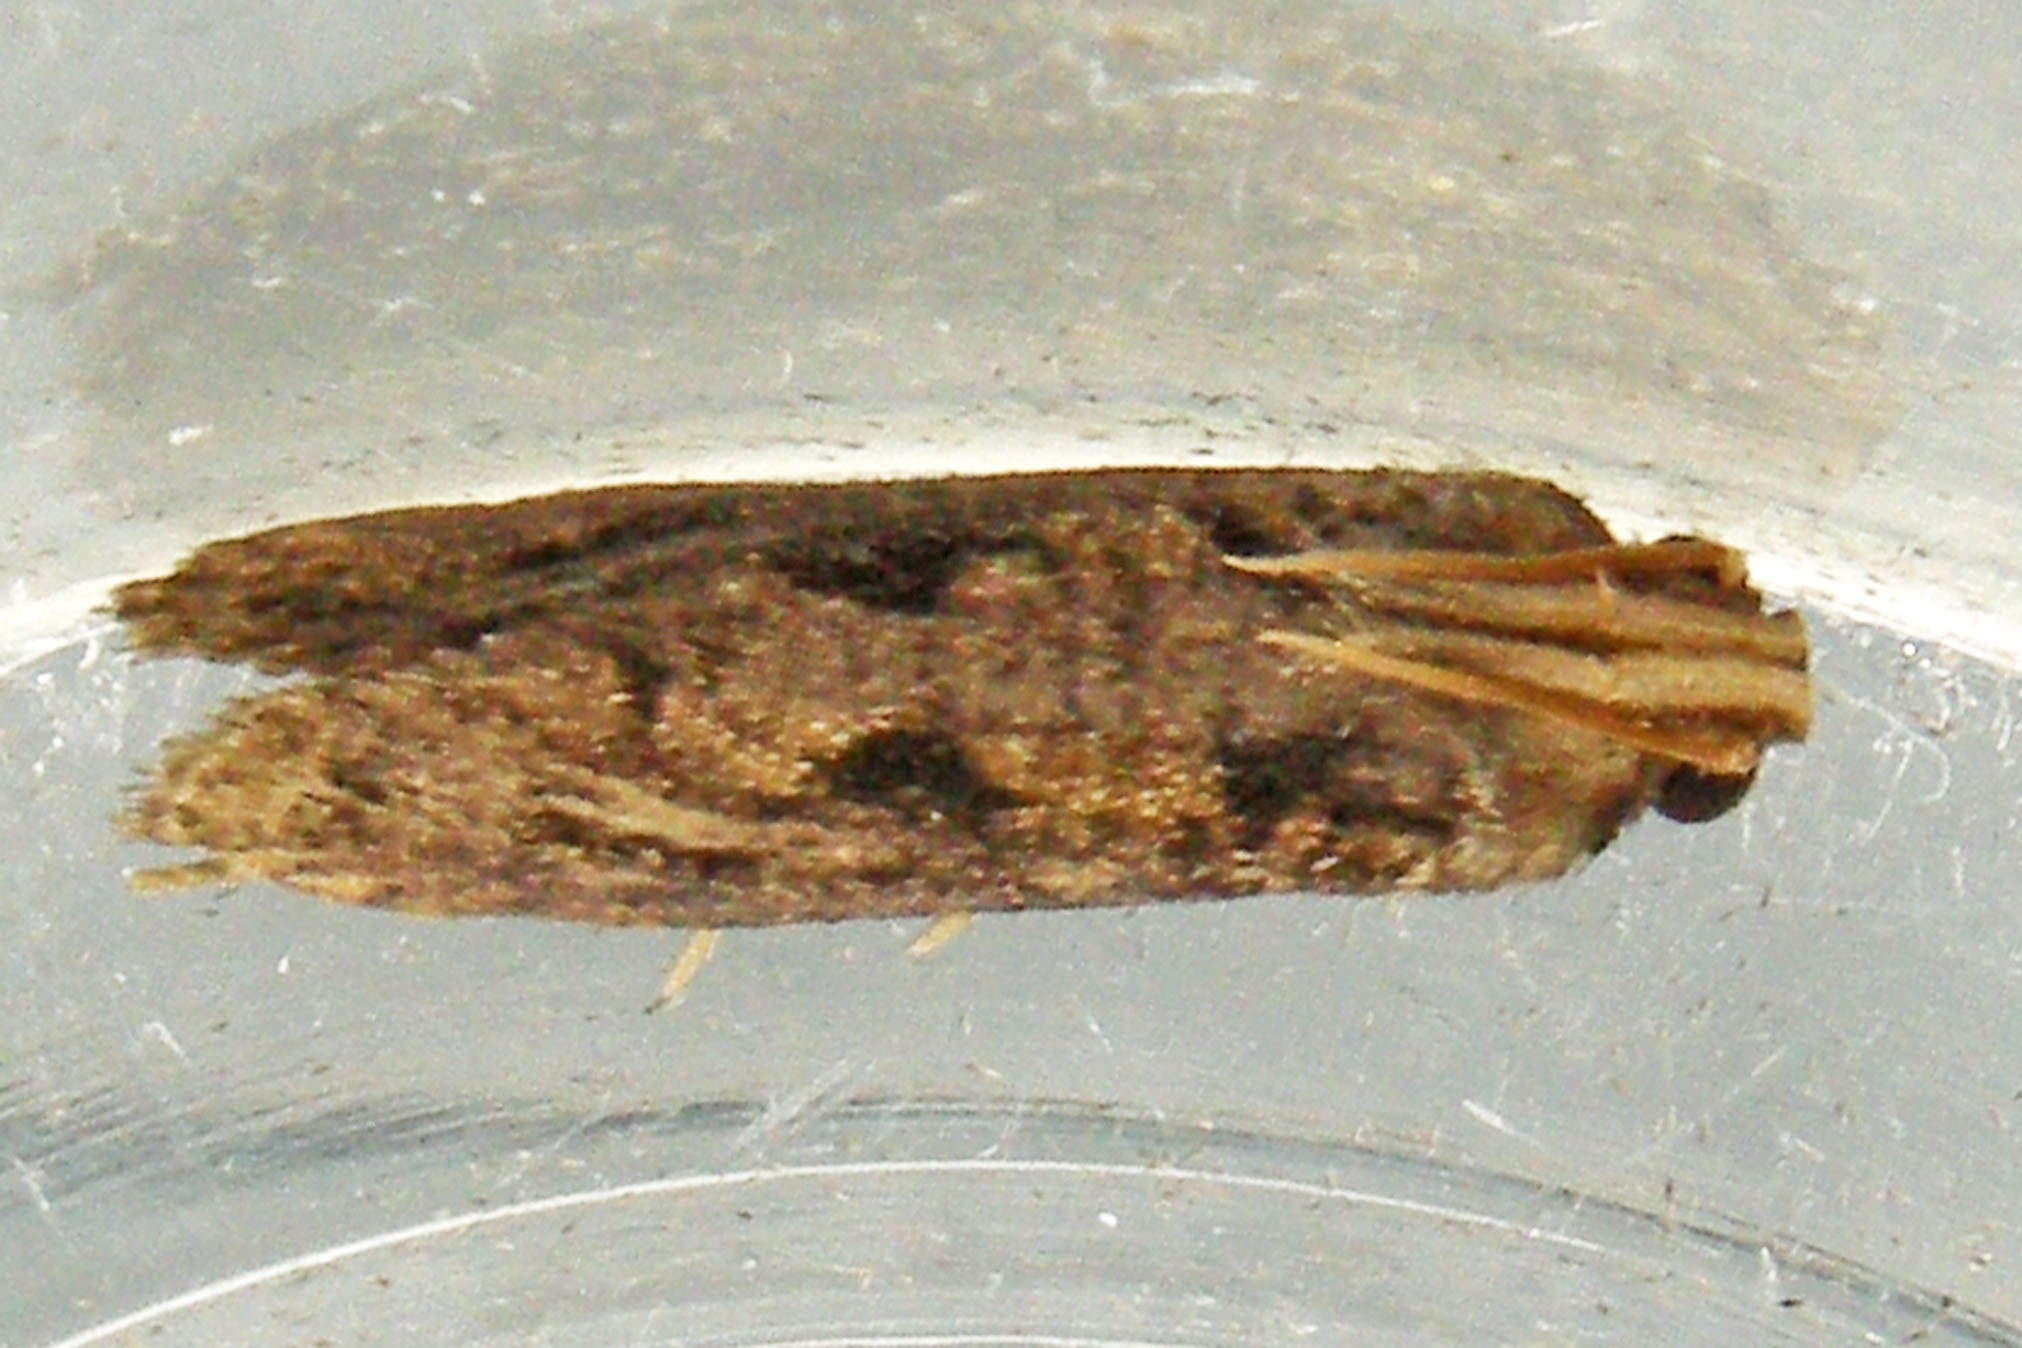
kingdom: Animalia
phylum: Arthropoda
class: Insecta
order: Lepidoptera
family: Tineidae
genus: Acrolophus
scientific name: Acrolophus popeanella
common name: Clemens' grass tubeworm moth
